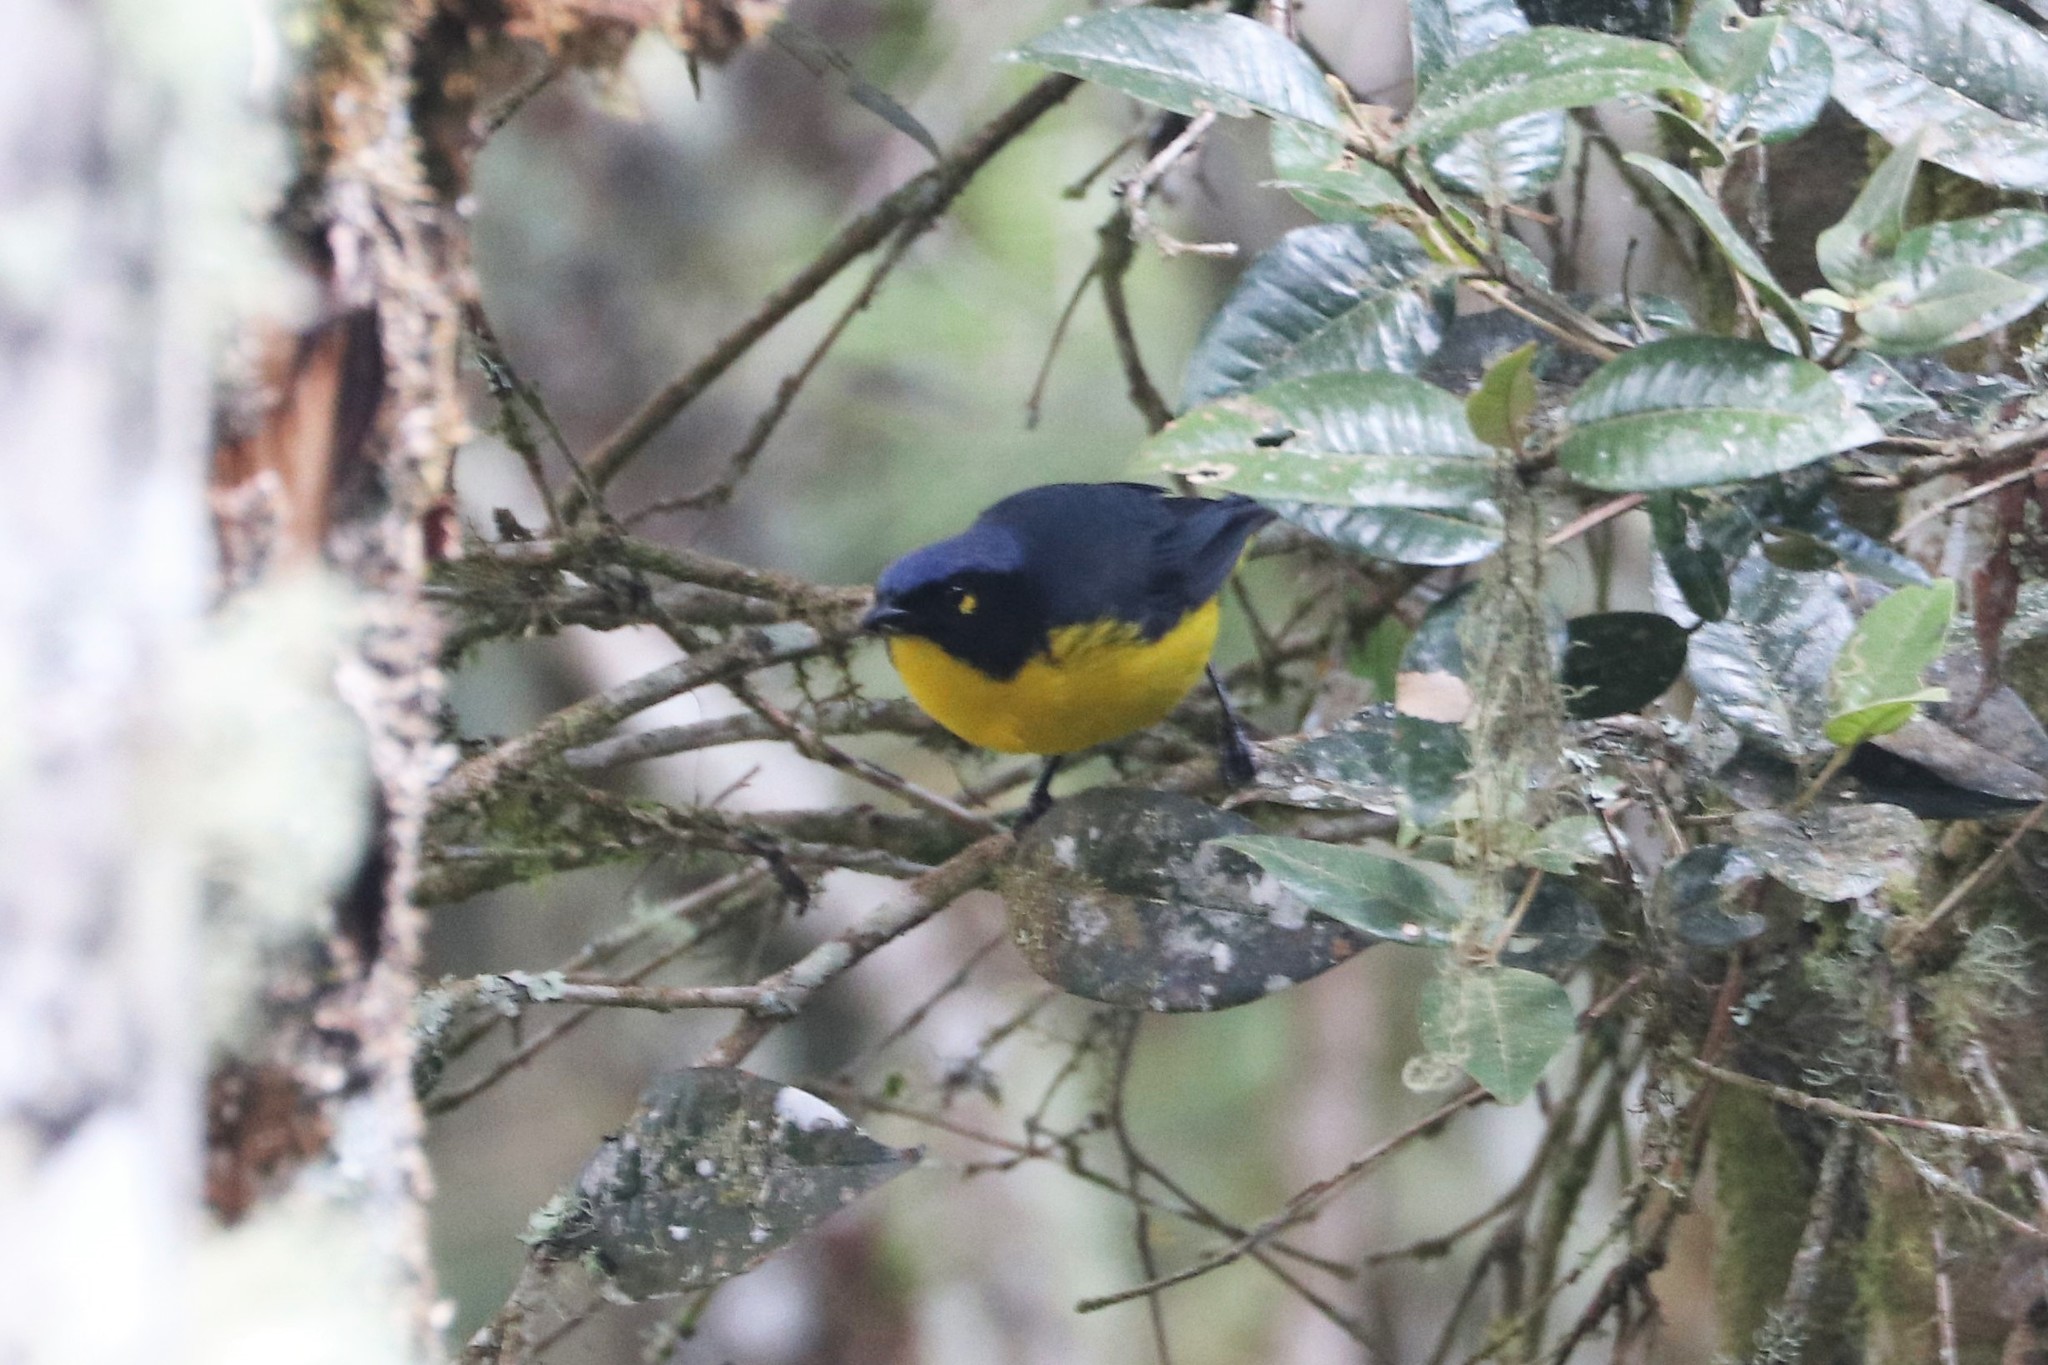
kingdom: Animalia
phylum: Chordata
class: Aves
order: Passeriformes
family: Thraupidae
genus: Anisognathus
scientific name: Anisognathus melanogenys
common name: Santa marta mountain tanager
